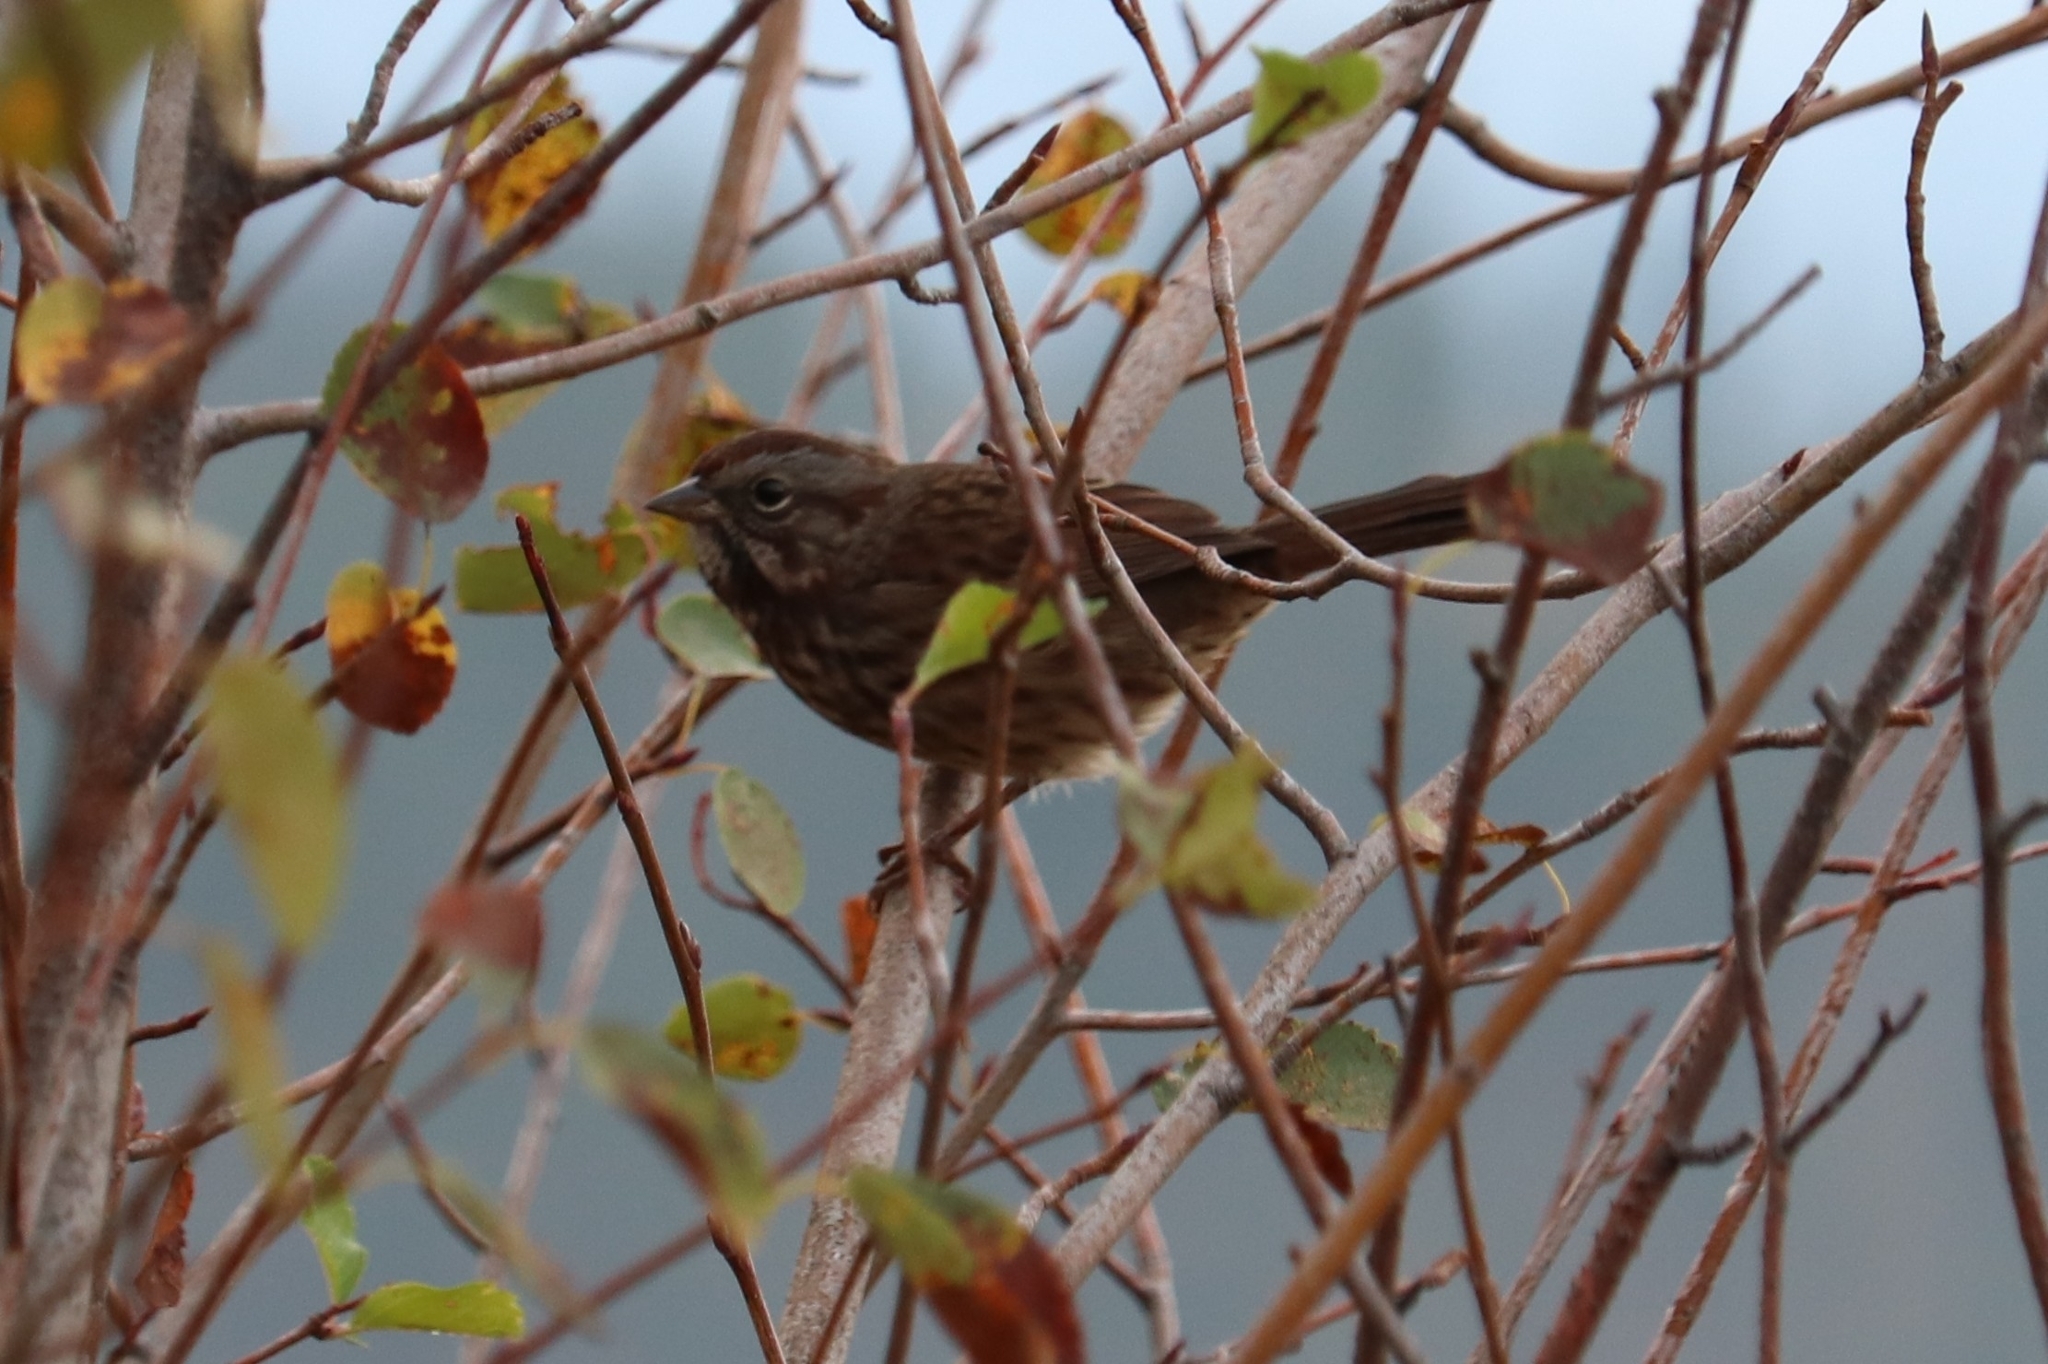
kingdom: Animalia
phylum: Chordata
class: Aves
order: Passeriformes
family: Passerellidae
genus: Melospiza
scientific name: Melospiza melodia
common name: Song sparrow
